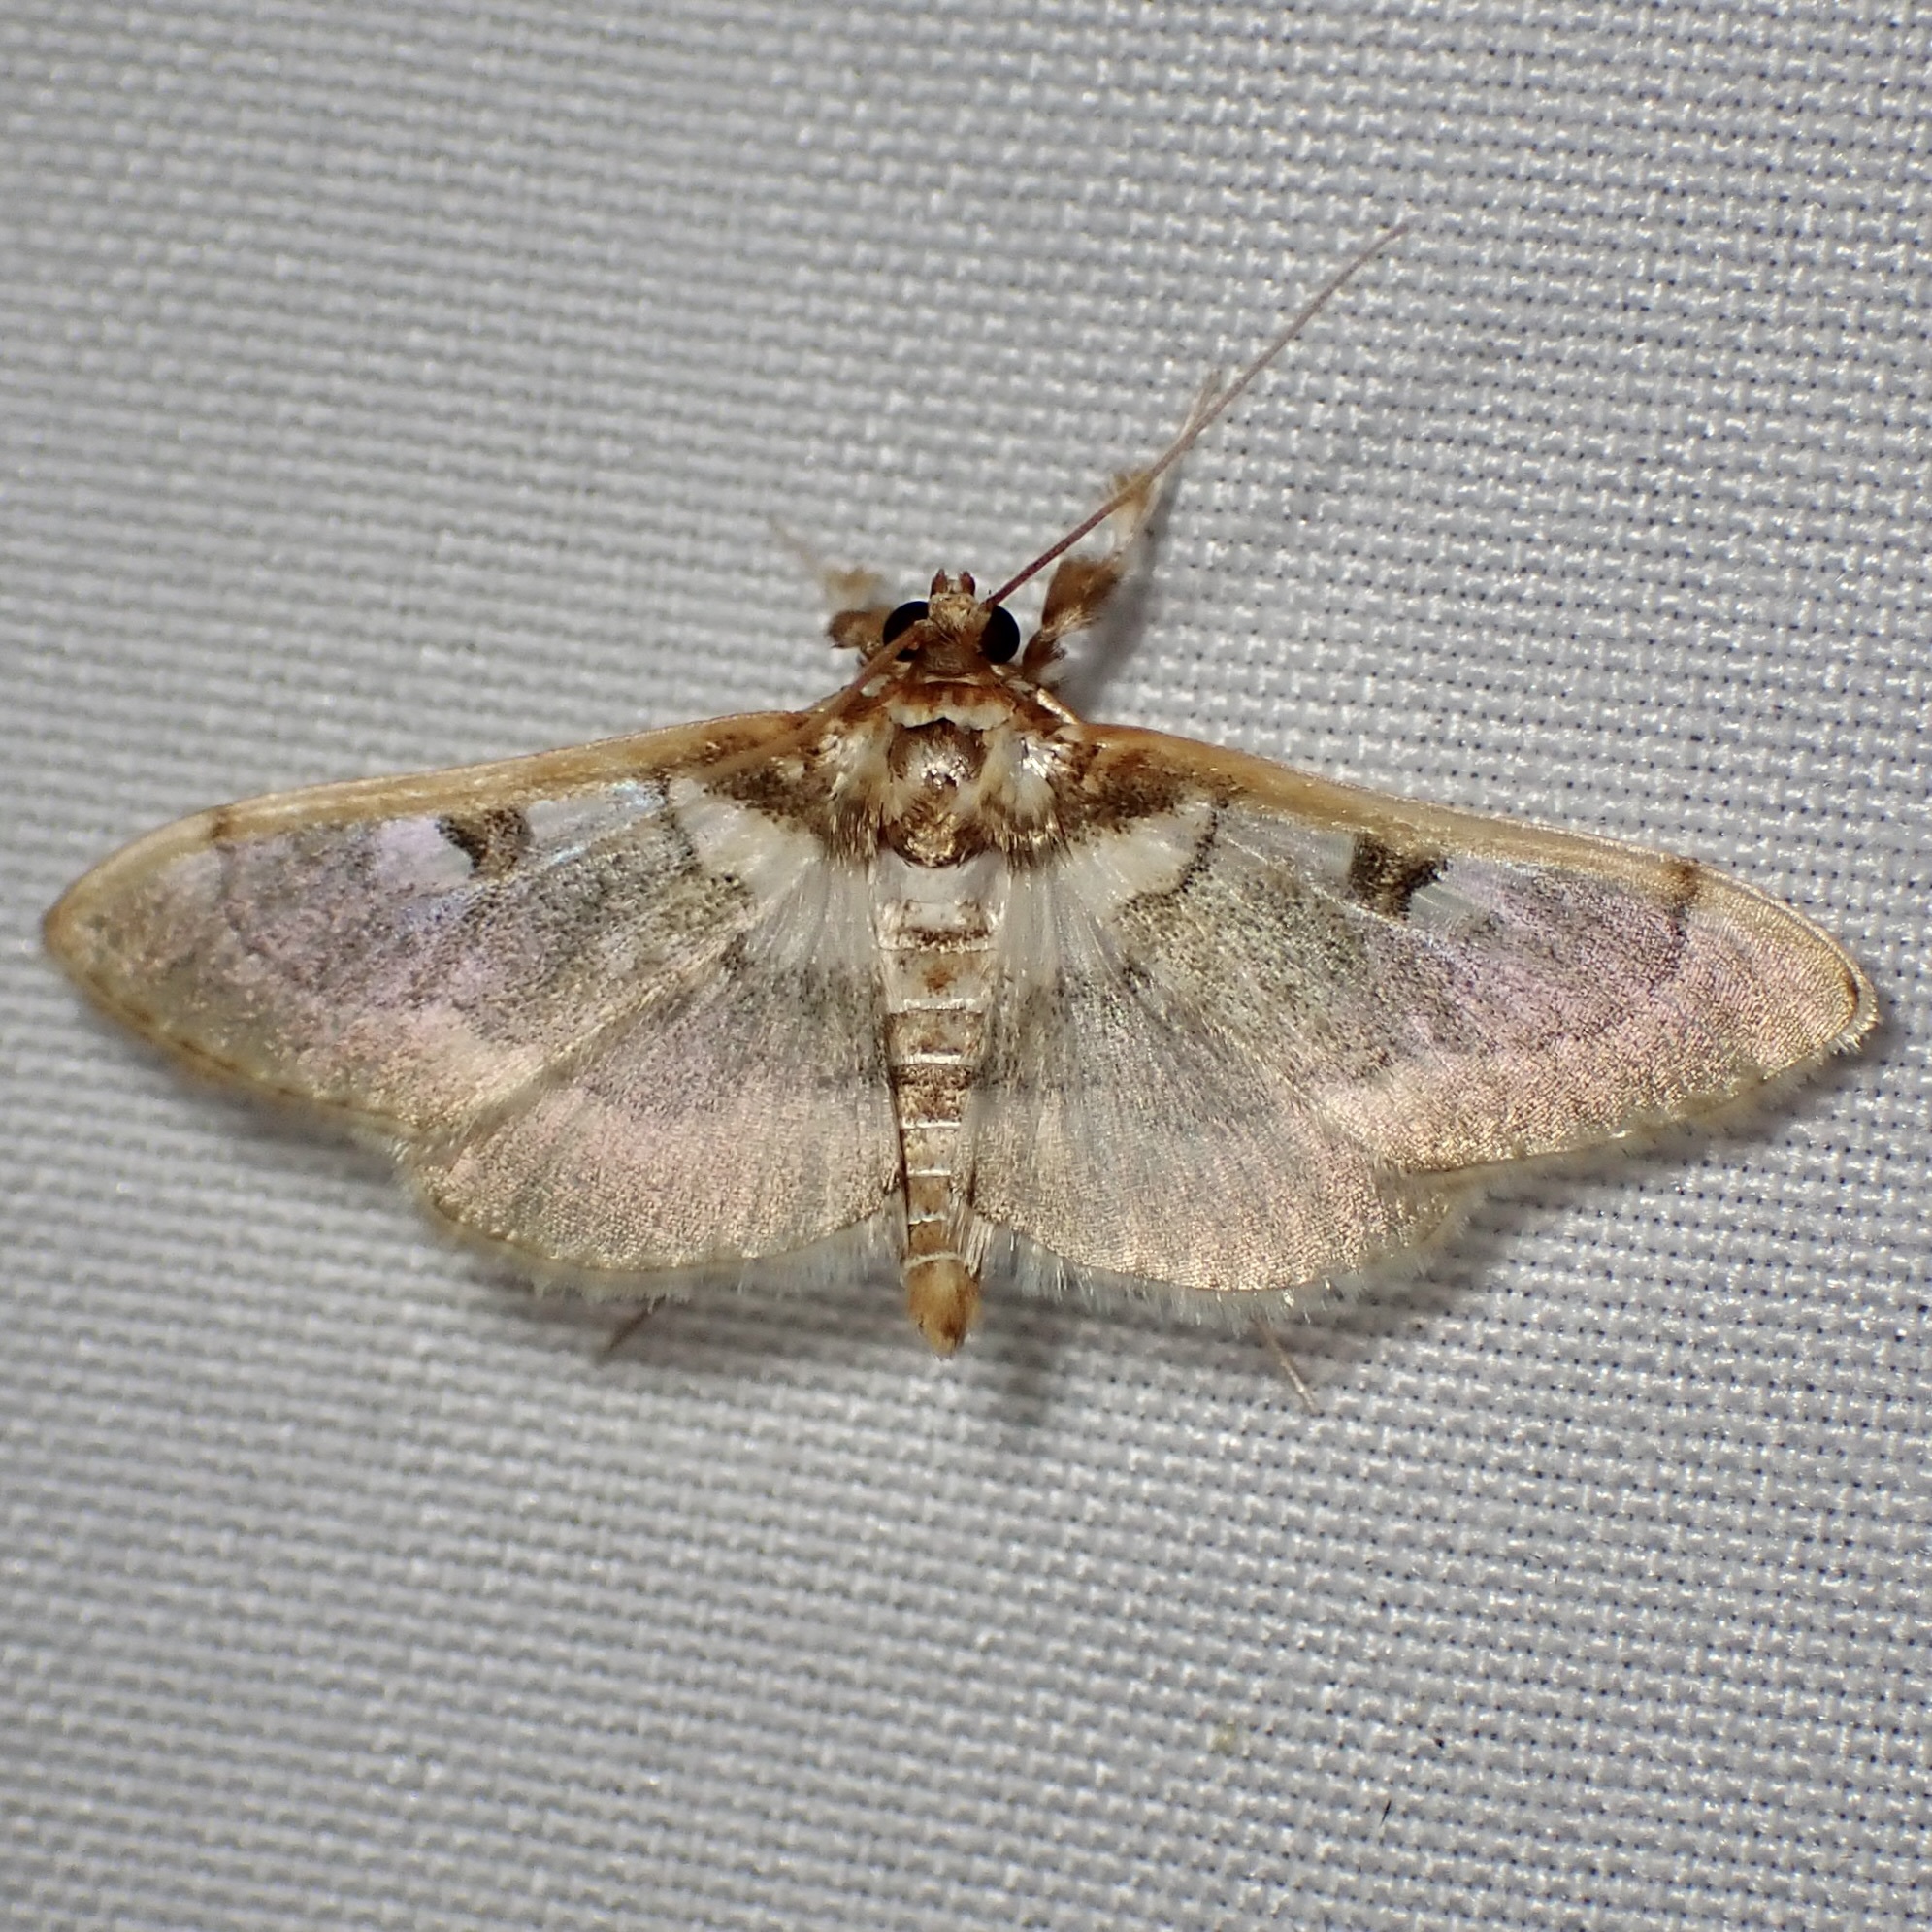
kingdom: Animalia
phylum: Arthropoda
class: Insecta
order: Lepidoptera
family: Crambidae
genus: Apilocrocis
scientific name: Apilocrocis pimalis
